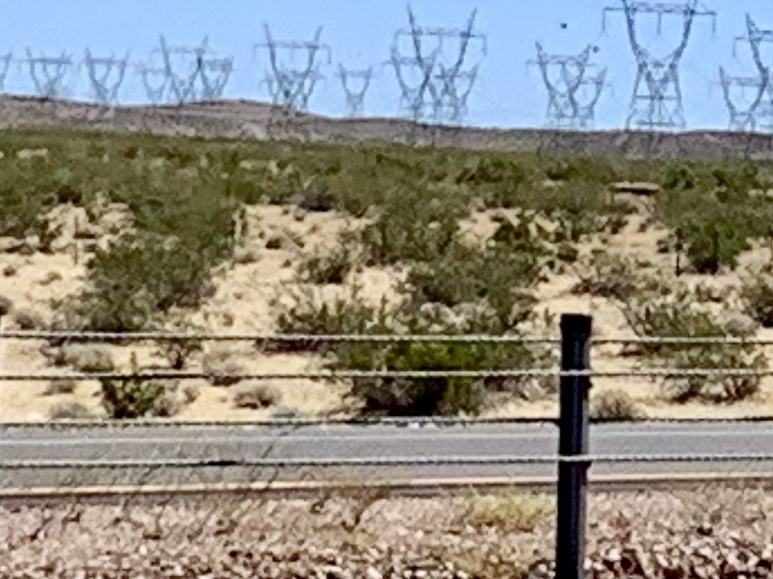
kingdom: Plantae
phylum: Tracheophyta
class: Magnoliopsida
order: Zygophyllales
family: Zygophyllaceae
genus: Larrea
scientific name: Larrea tridentata
